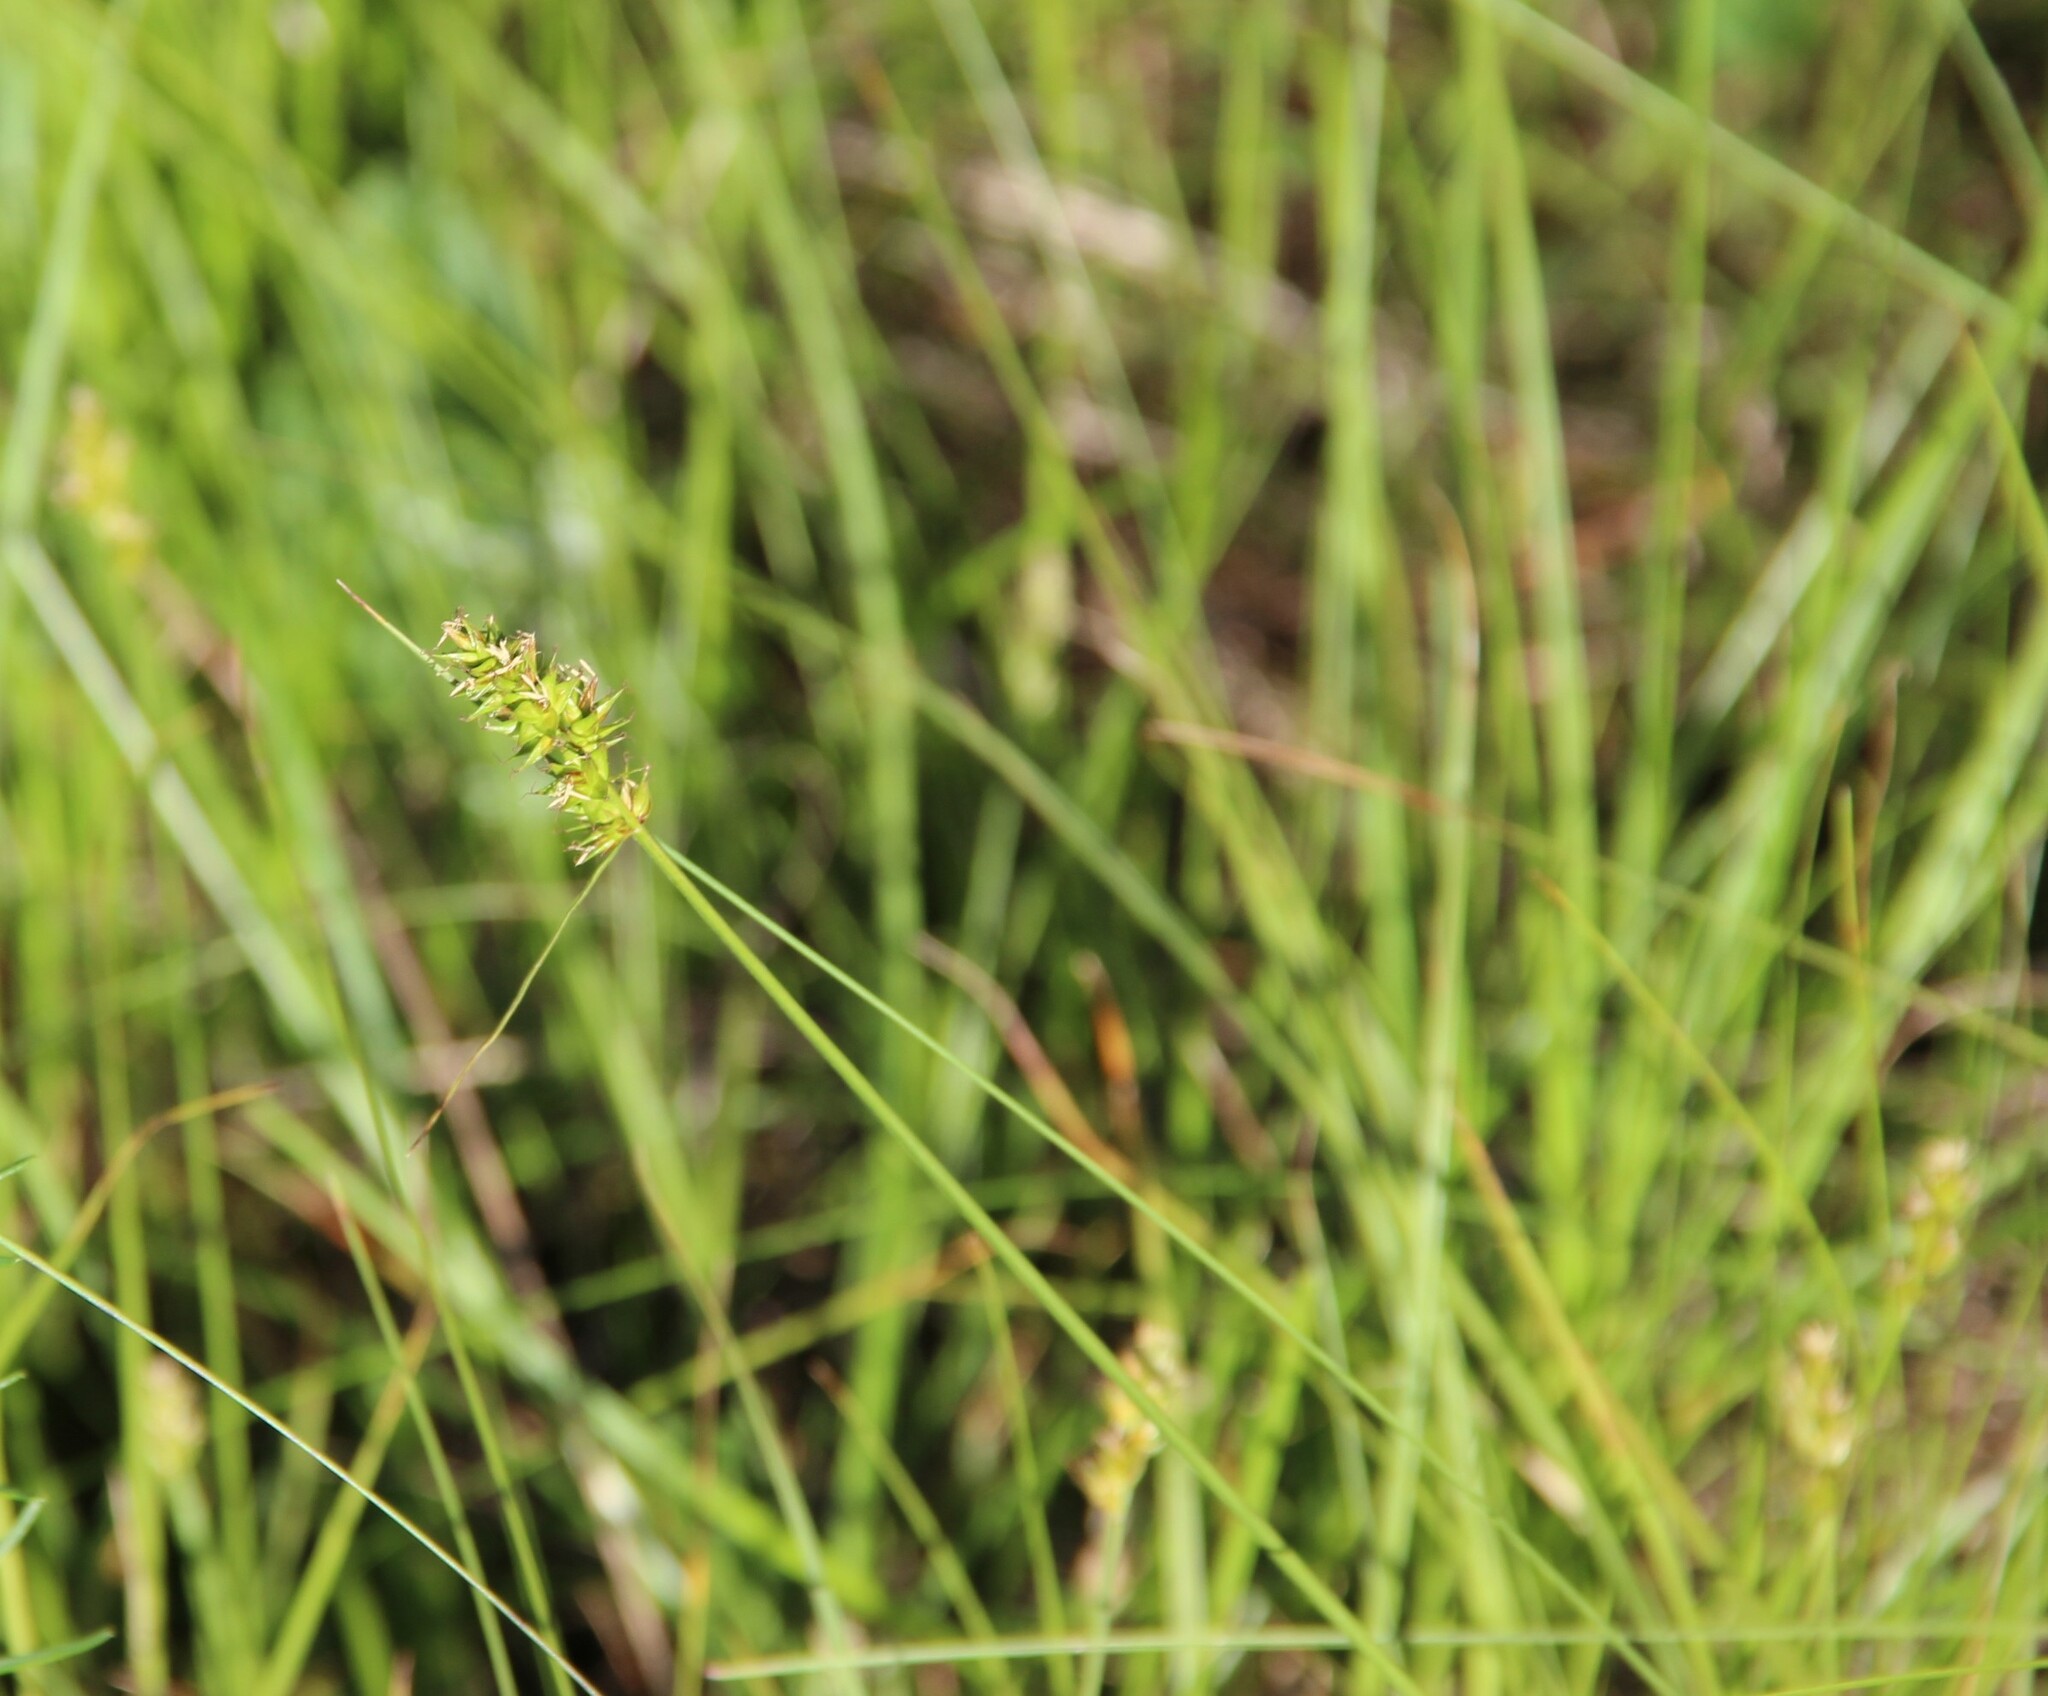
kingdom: Plantae
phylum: Tracheophyta
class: Liliopsida
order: Poales
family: Cyperaceae
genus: Carex
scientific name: Carex spicata
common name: Spiked sedge
